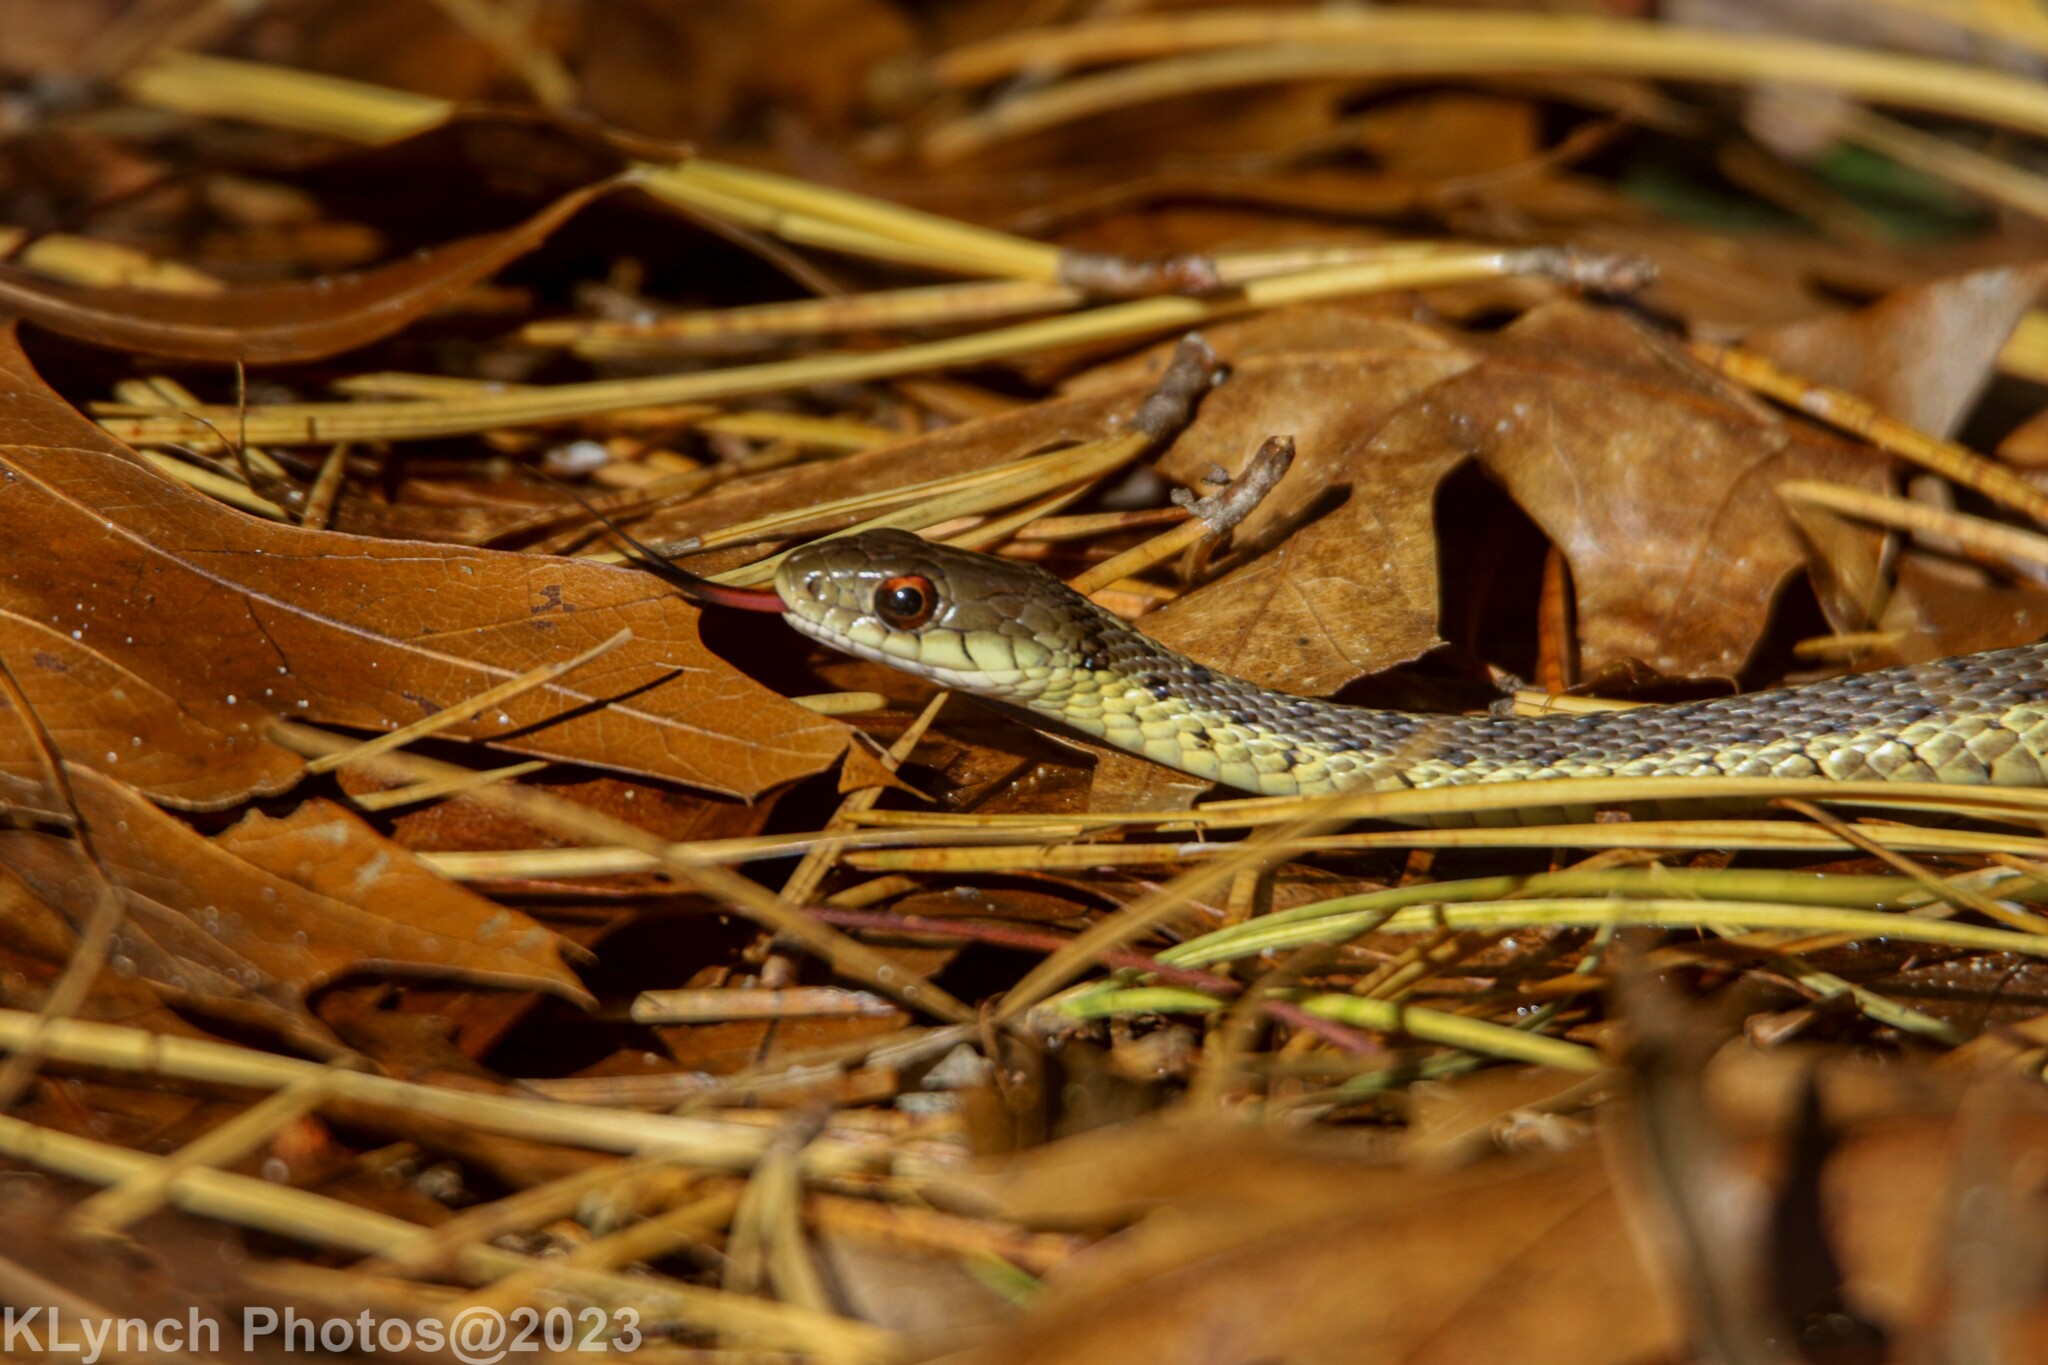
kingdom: Animalia
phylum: Chordata
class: Squamata
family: Colubridae
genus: Thamnophis
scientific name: Thamnophis sirtalis
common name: Common garter snake
